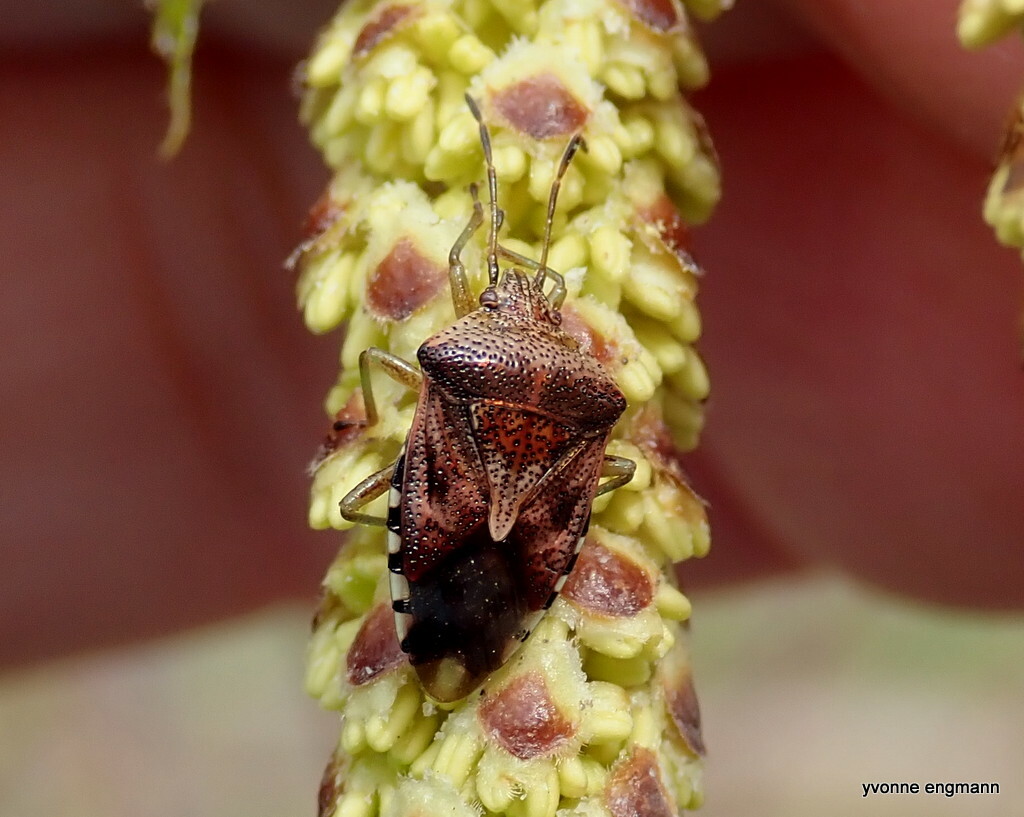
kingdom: Animalia
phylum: Arthropoda
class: Insecta
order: Hemiptera
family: Acanthosomatidae
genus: Elasmucha
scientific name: Elasmucha grisea
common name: Parent bug
